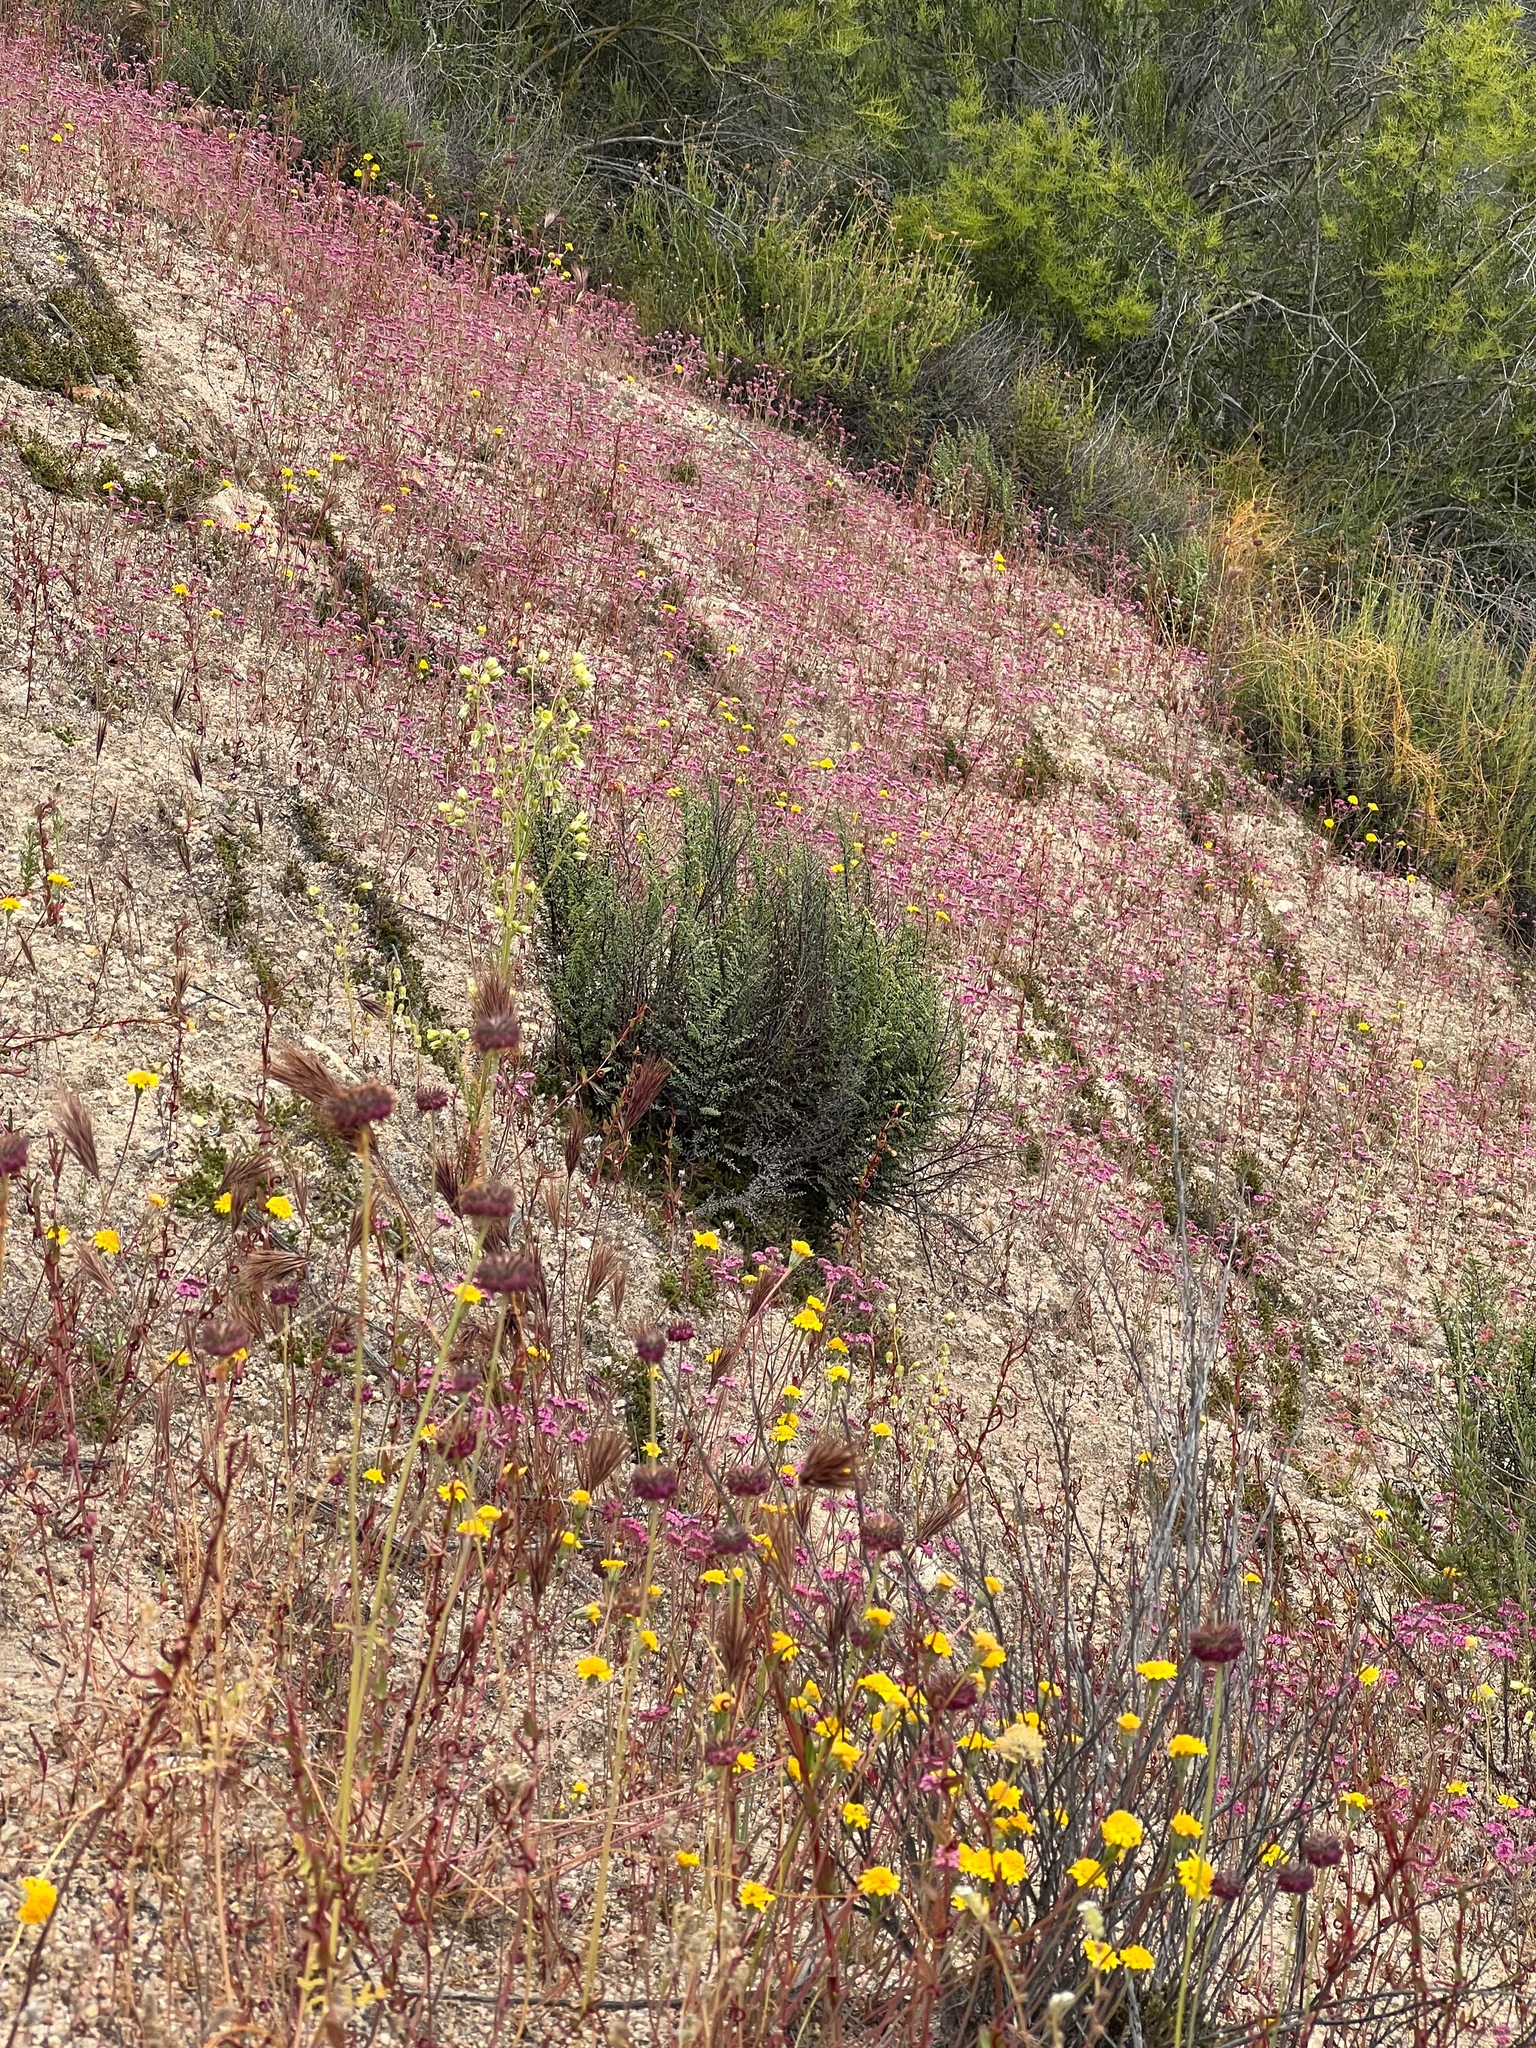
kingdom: Plantae
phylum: Tracheophyta
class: Magnoliopsida
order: Caryophyllales
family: Polygonaceae
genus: Chorizanthe
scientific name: Chorizanthe douglasii
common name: Douglas's spineflower
